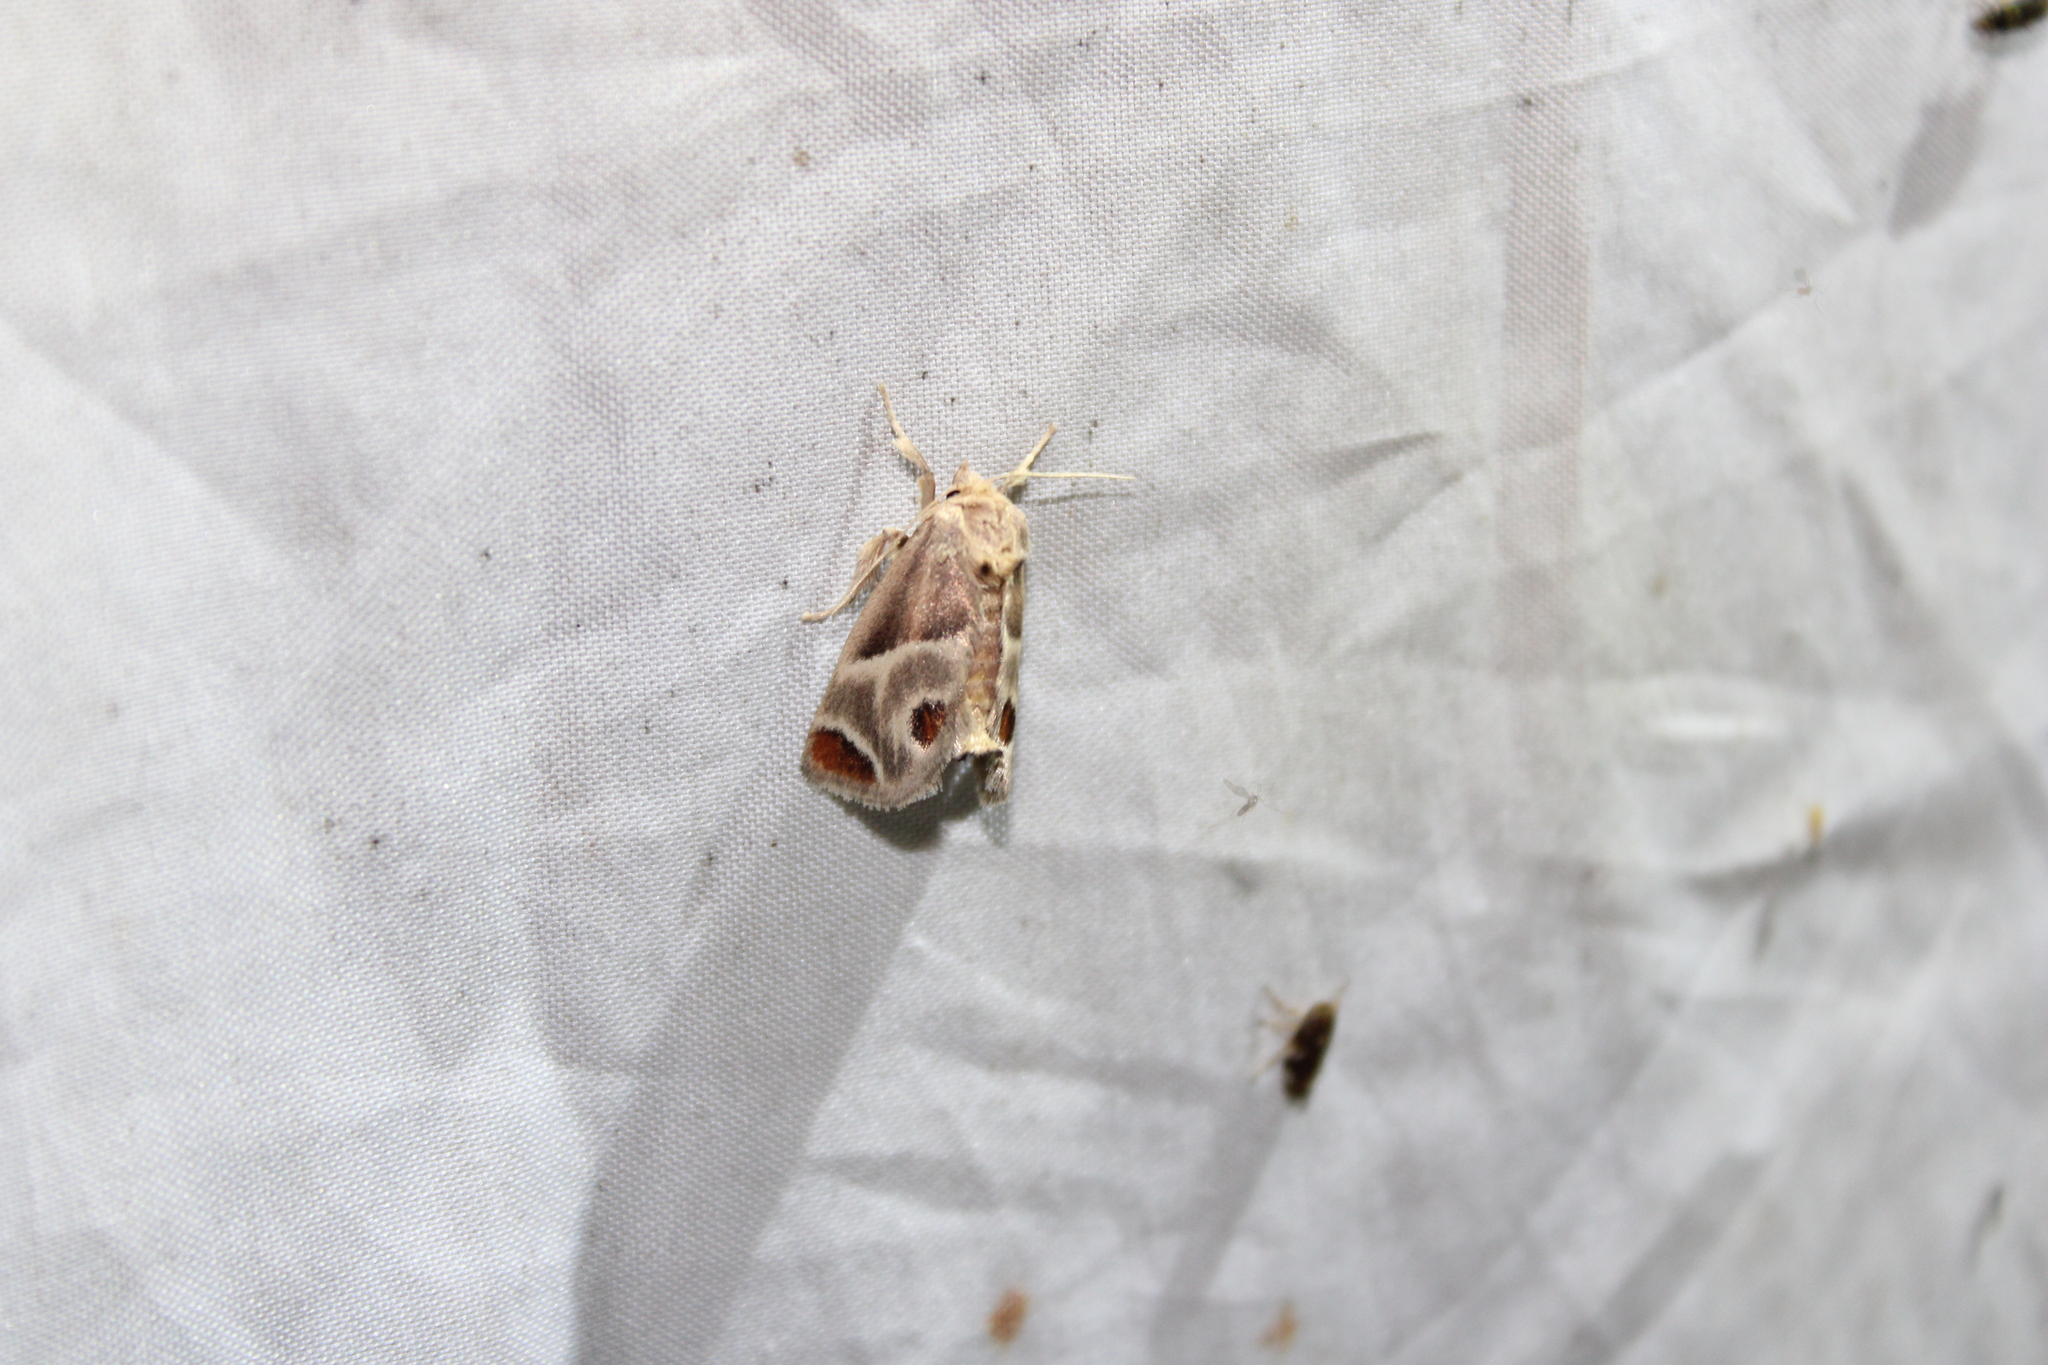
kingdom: Animalia
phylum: Arthropoda
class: Insecta
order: Lepidoptera
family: Limacodidae
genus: Apoda
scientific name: Apoda biguttata
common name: Shagreened slug moth
